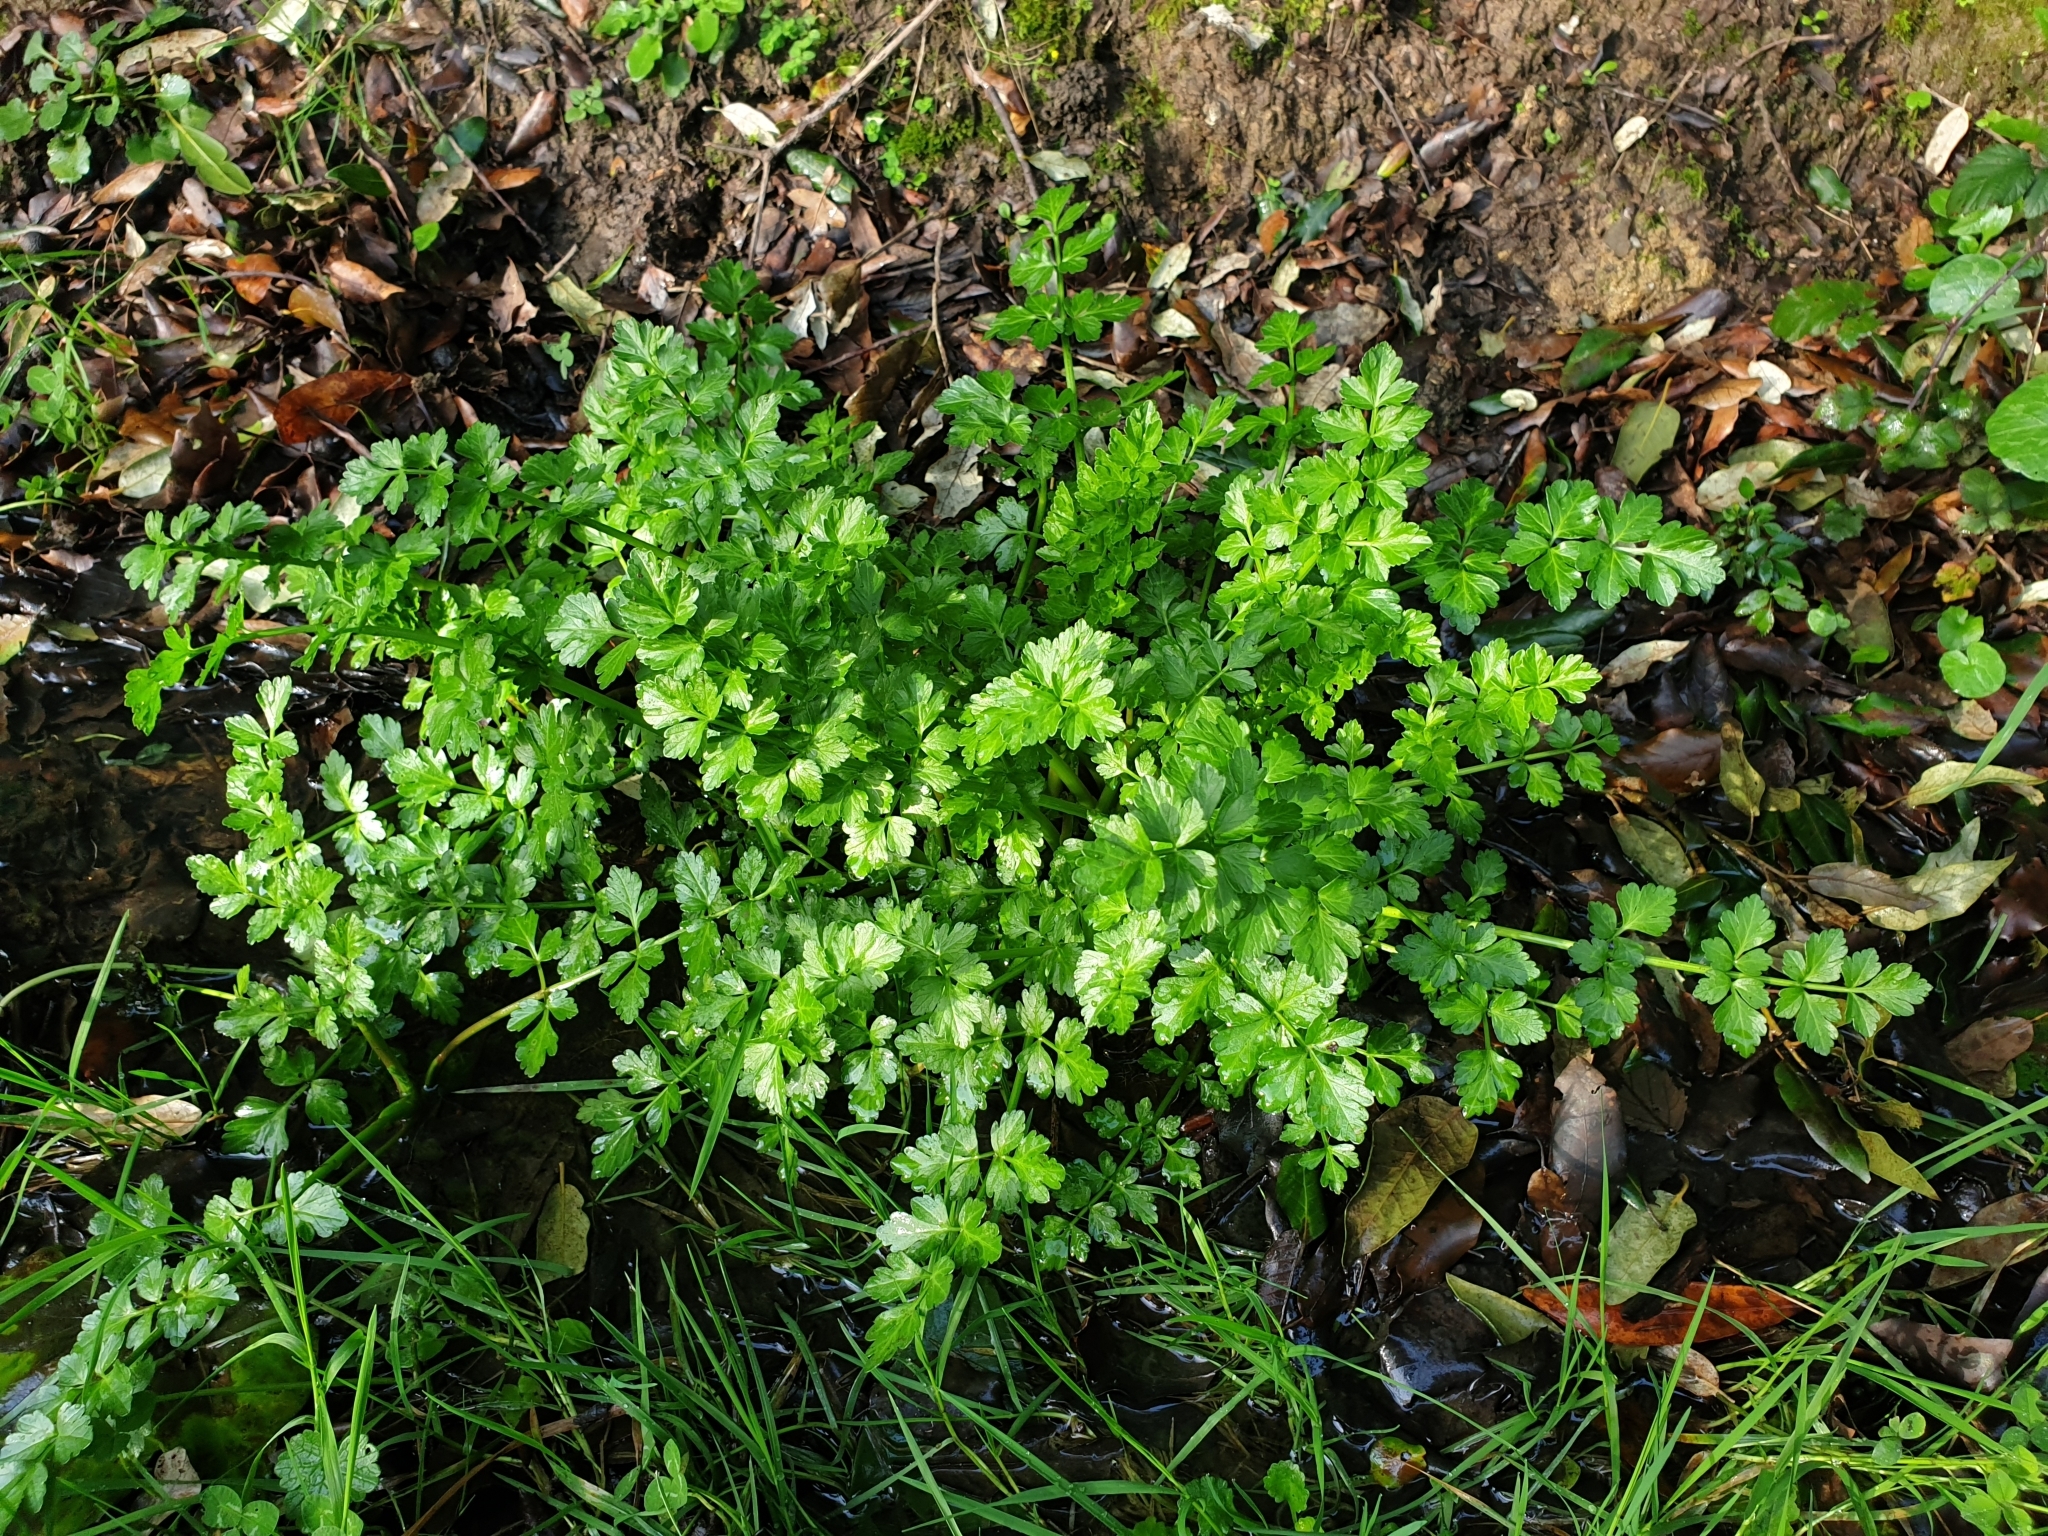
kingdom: Plantae
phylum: Tracheophyta
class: Magnoliopsida
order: Apiales
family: Apiaceae
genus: Oenanthe
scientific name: Oenanthe crocata
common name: Hemlock water-dropwort
